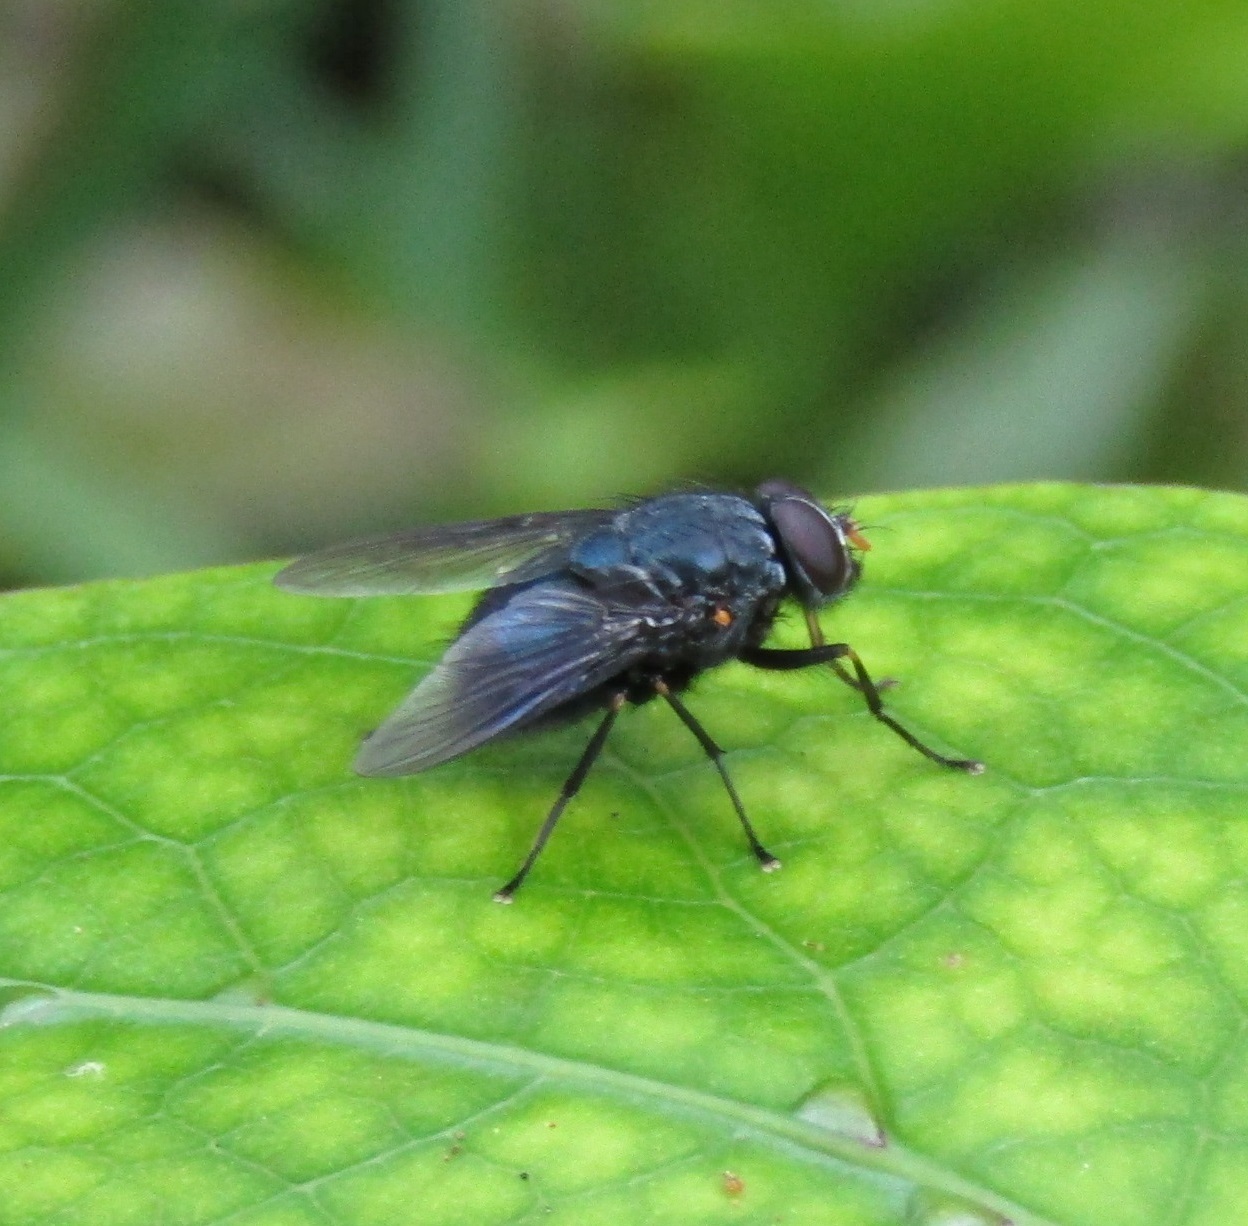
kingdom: Animalia
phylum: Arthropoda
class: Insecta
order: Diptera
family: Muscidae
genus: Calliphoroides
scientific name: Calliphoroides antennatis
